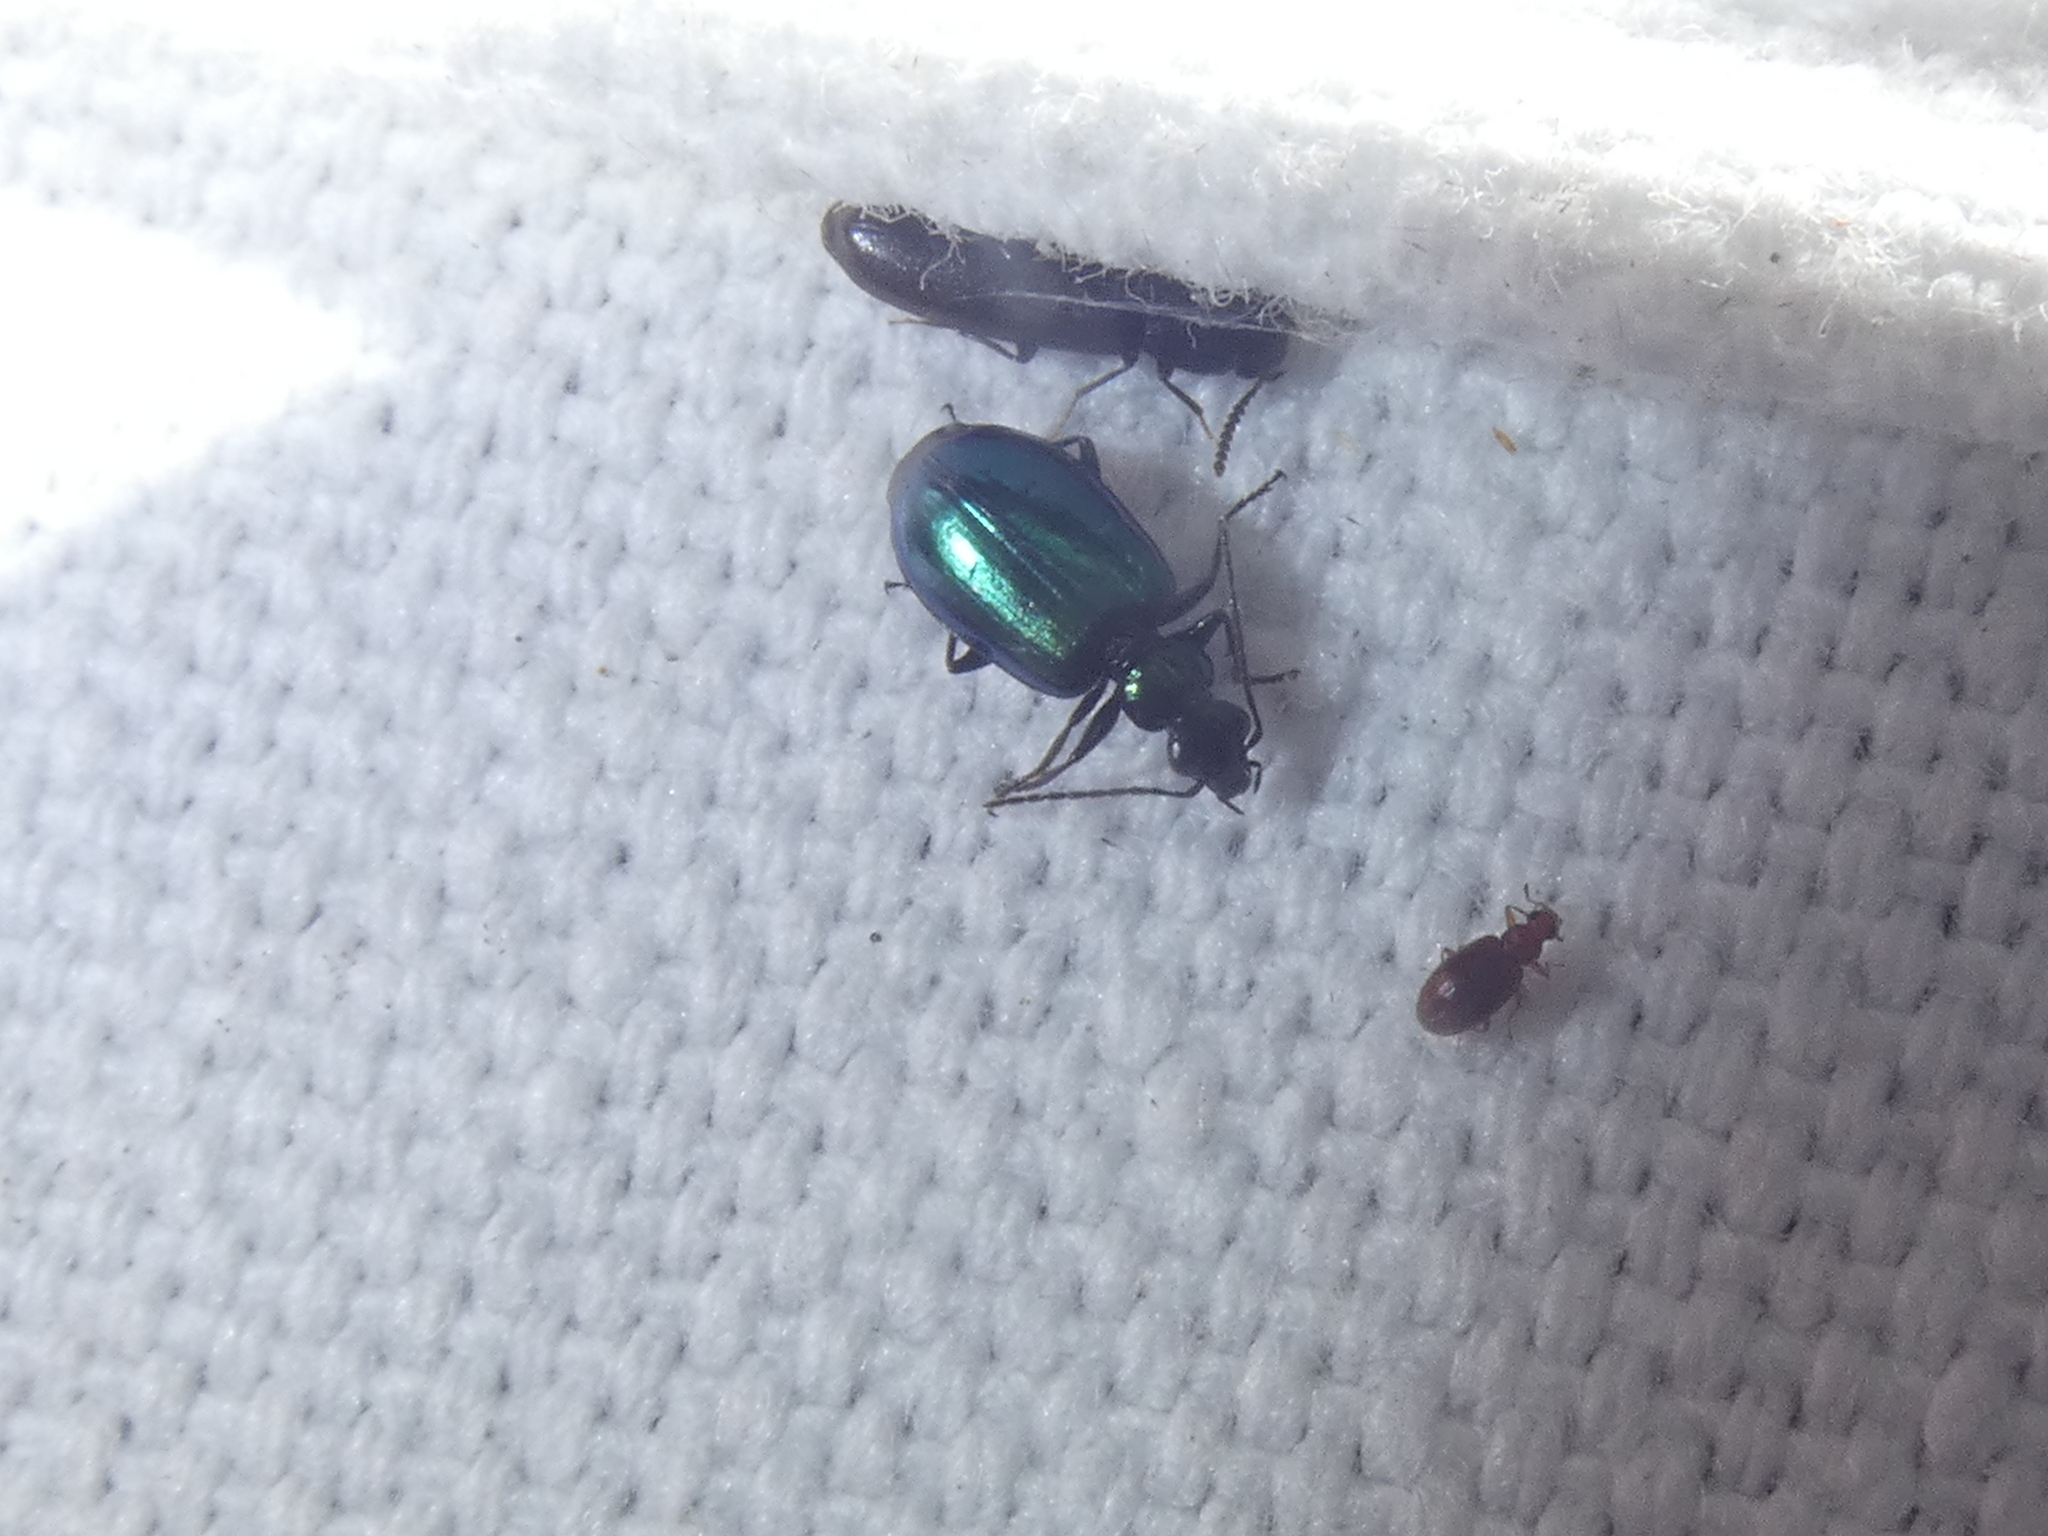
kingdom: Animalia
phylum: Arthropoda
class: Insecta
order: Coleoptera
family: Carabidae
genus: Lebia
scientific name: Lebia viridis
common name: Flower lebia beetle
